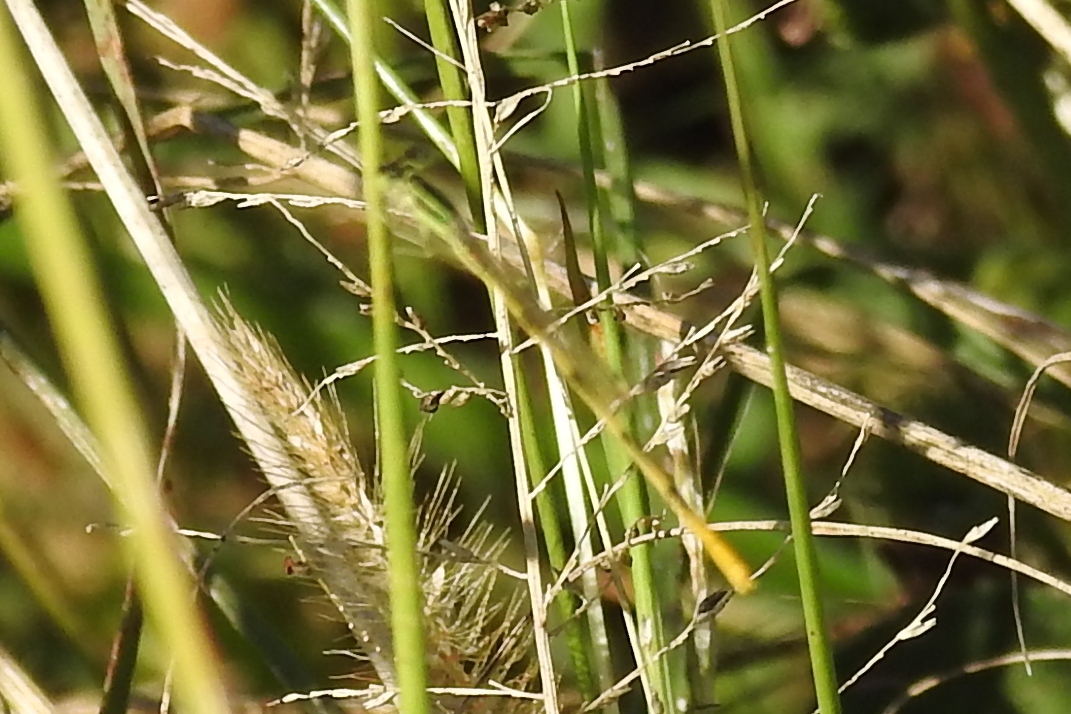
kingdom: Animalia
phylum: Arthropoda
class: Insecta
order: Odonata
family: Coenagrionidae
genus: Ischnura
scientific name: Ischnura hastata
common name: Citrine forktail
